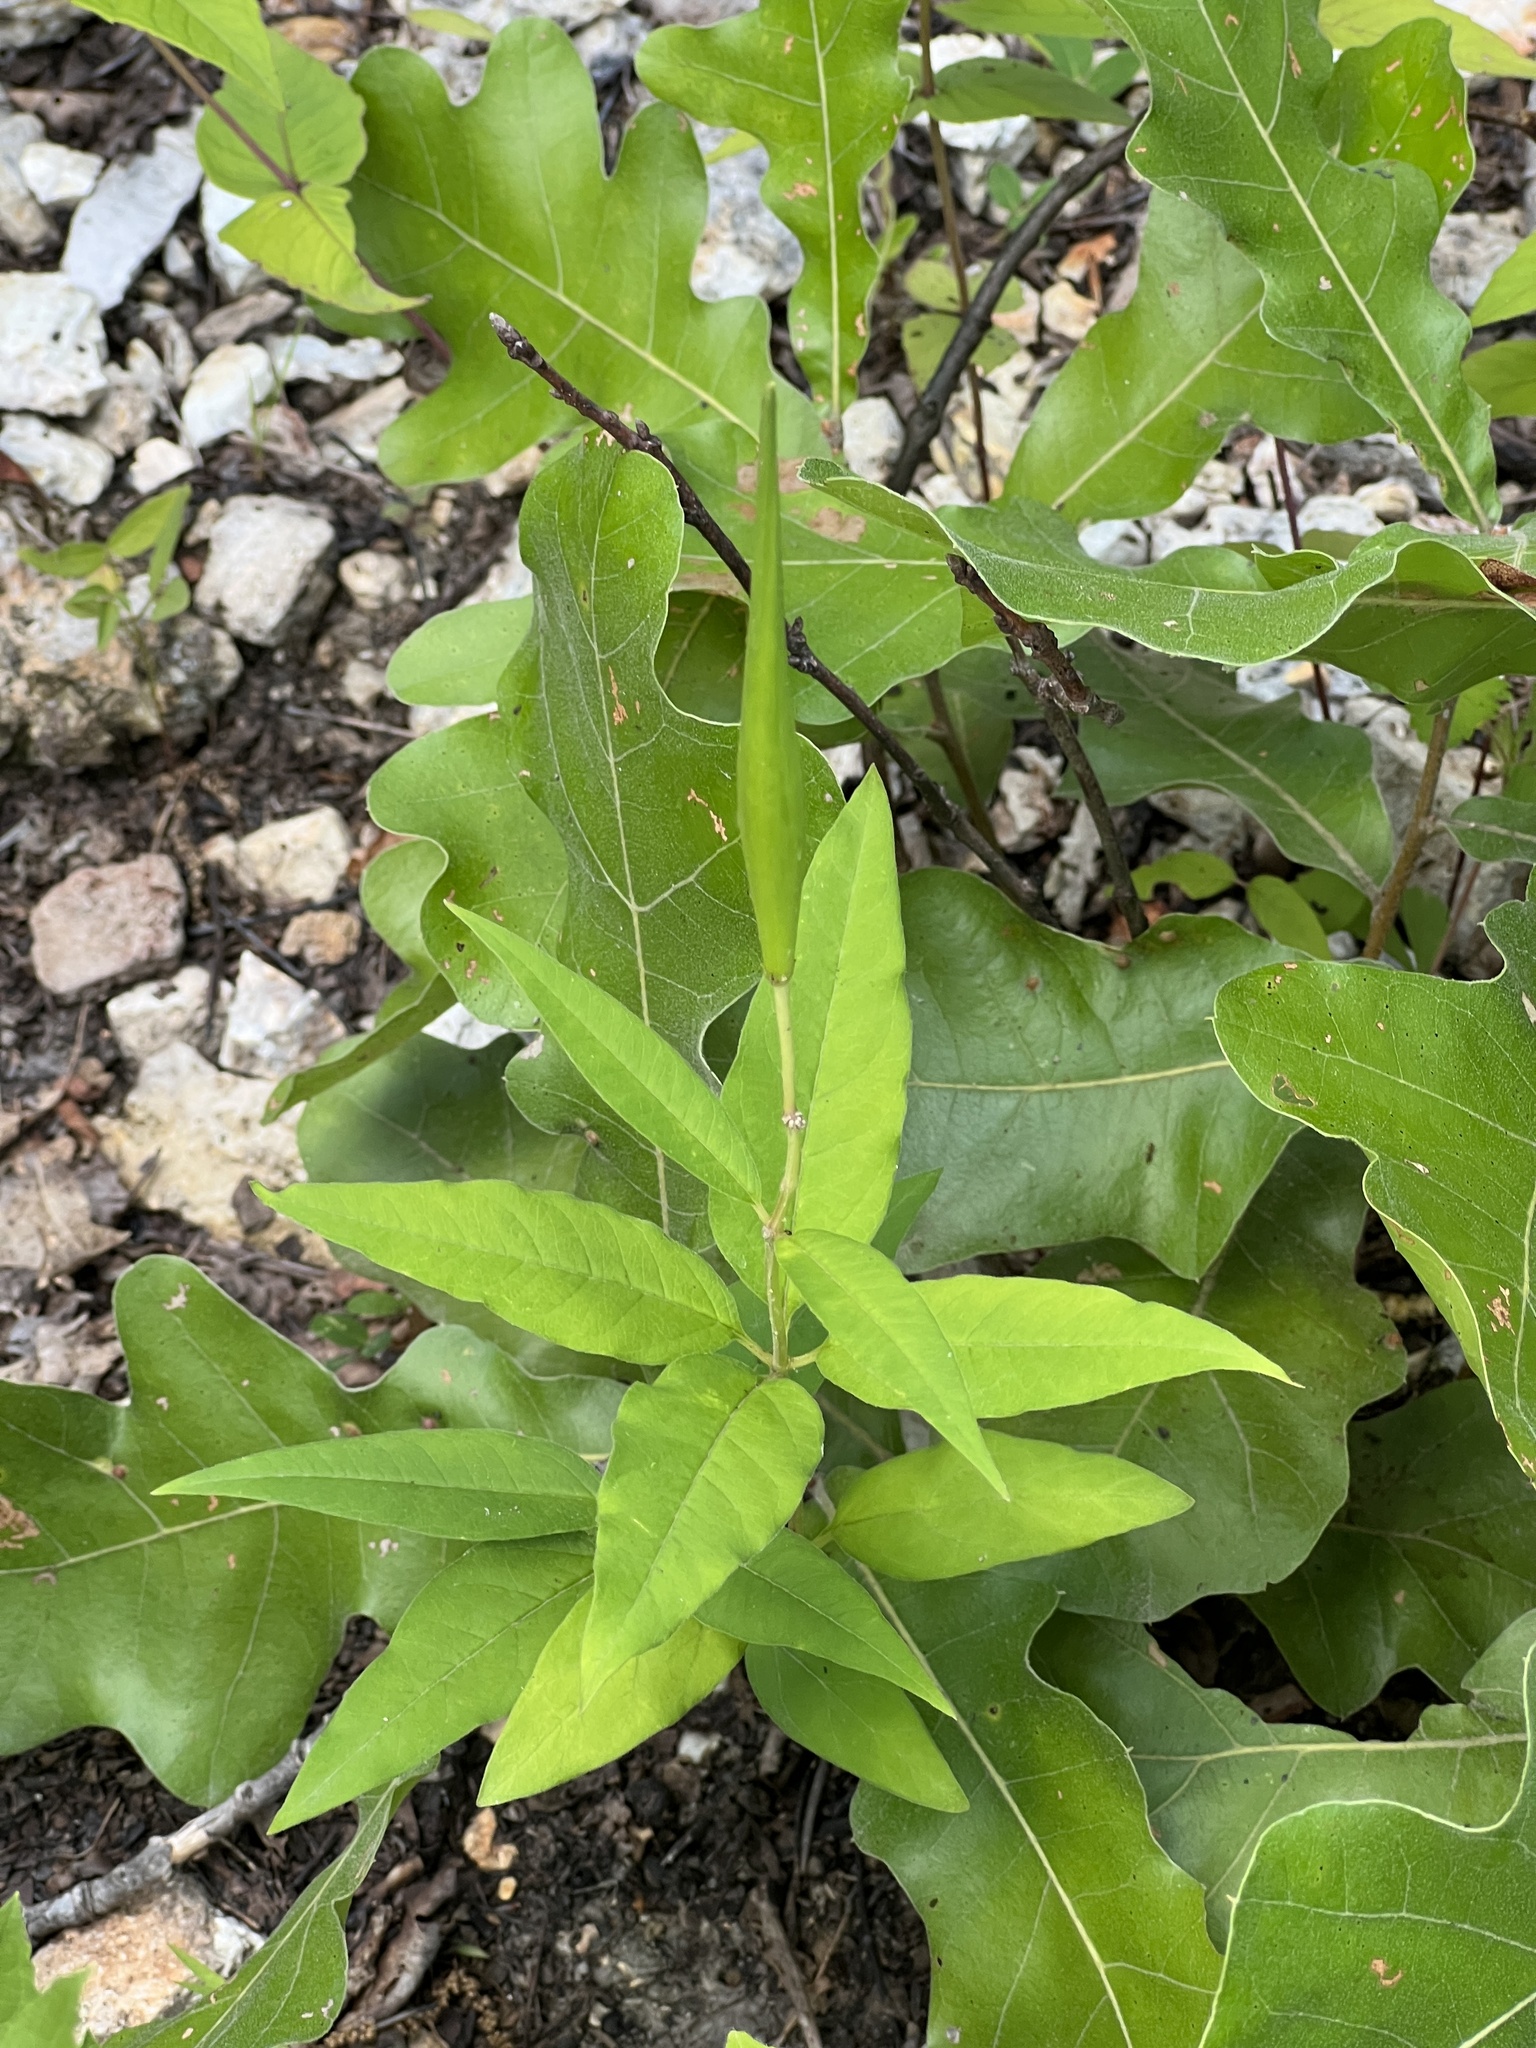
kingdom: Plantae
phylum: Tracheophyta
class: Magnoliopsida
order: Gentianales
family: Apocynaceae
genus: Asclepias
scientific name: Asclepias quadrifolia
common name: Whorled milkweed
